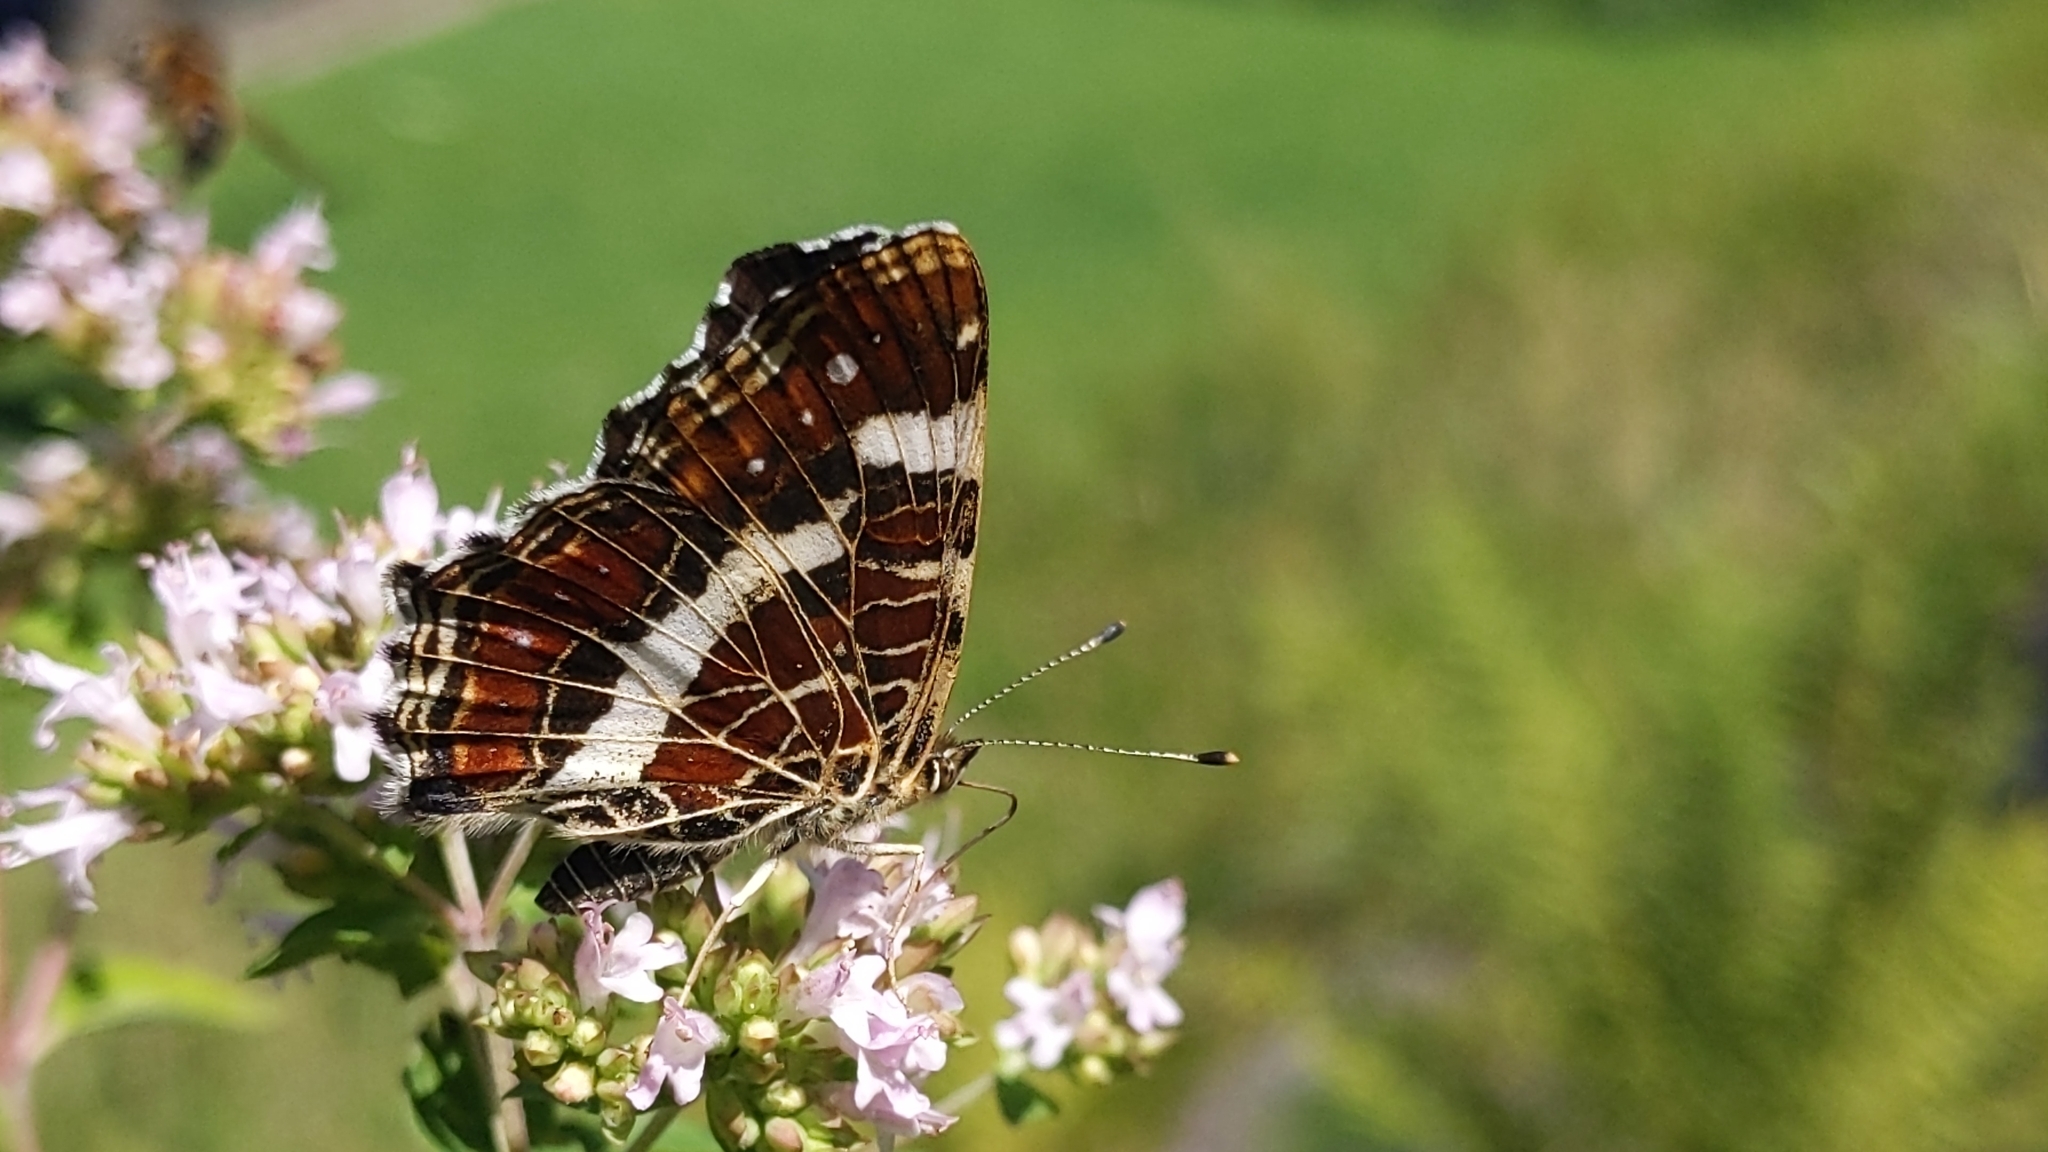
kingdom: Animalia
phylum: Arthropoda
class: Insecta
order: Lepidoptera
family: Nymphalidae
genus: Araschnia
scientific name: Araschnia levana
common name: Map butterfly
